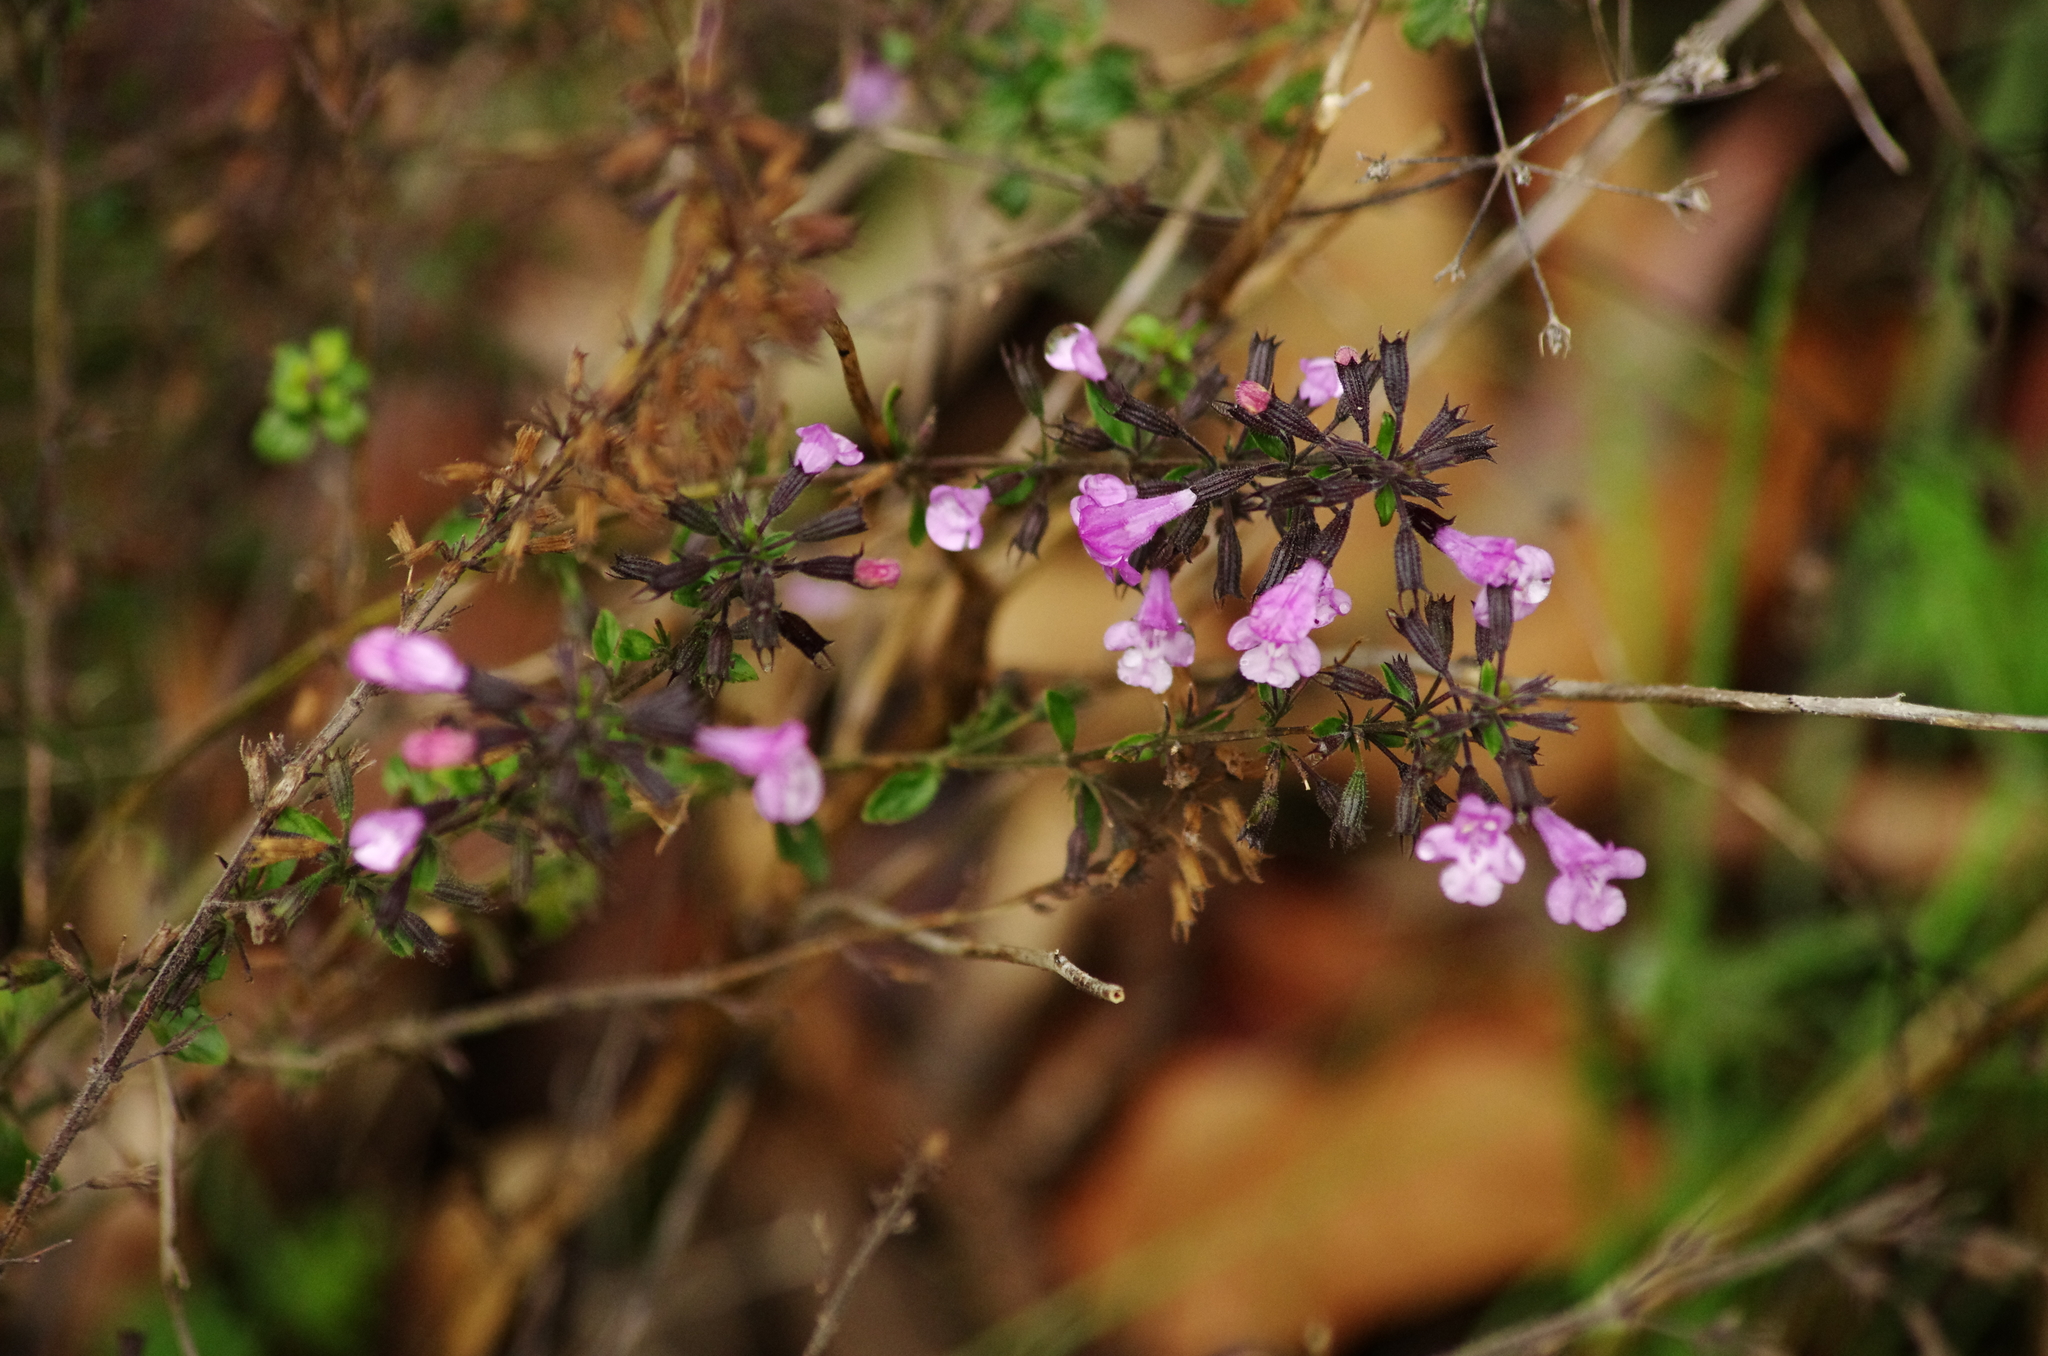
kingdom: Plantae
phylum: Tracheophyta
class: Magnoliopsida
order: Lamiales
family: Lamiaceae
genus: Clinopodium
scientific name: Clinopodium menthifolium
